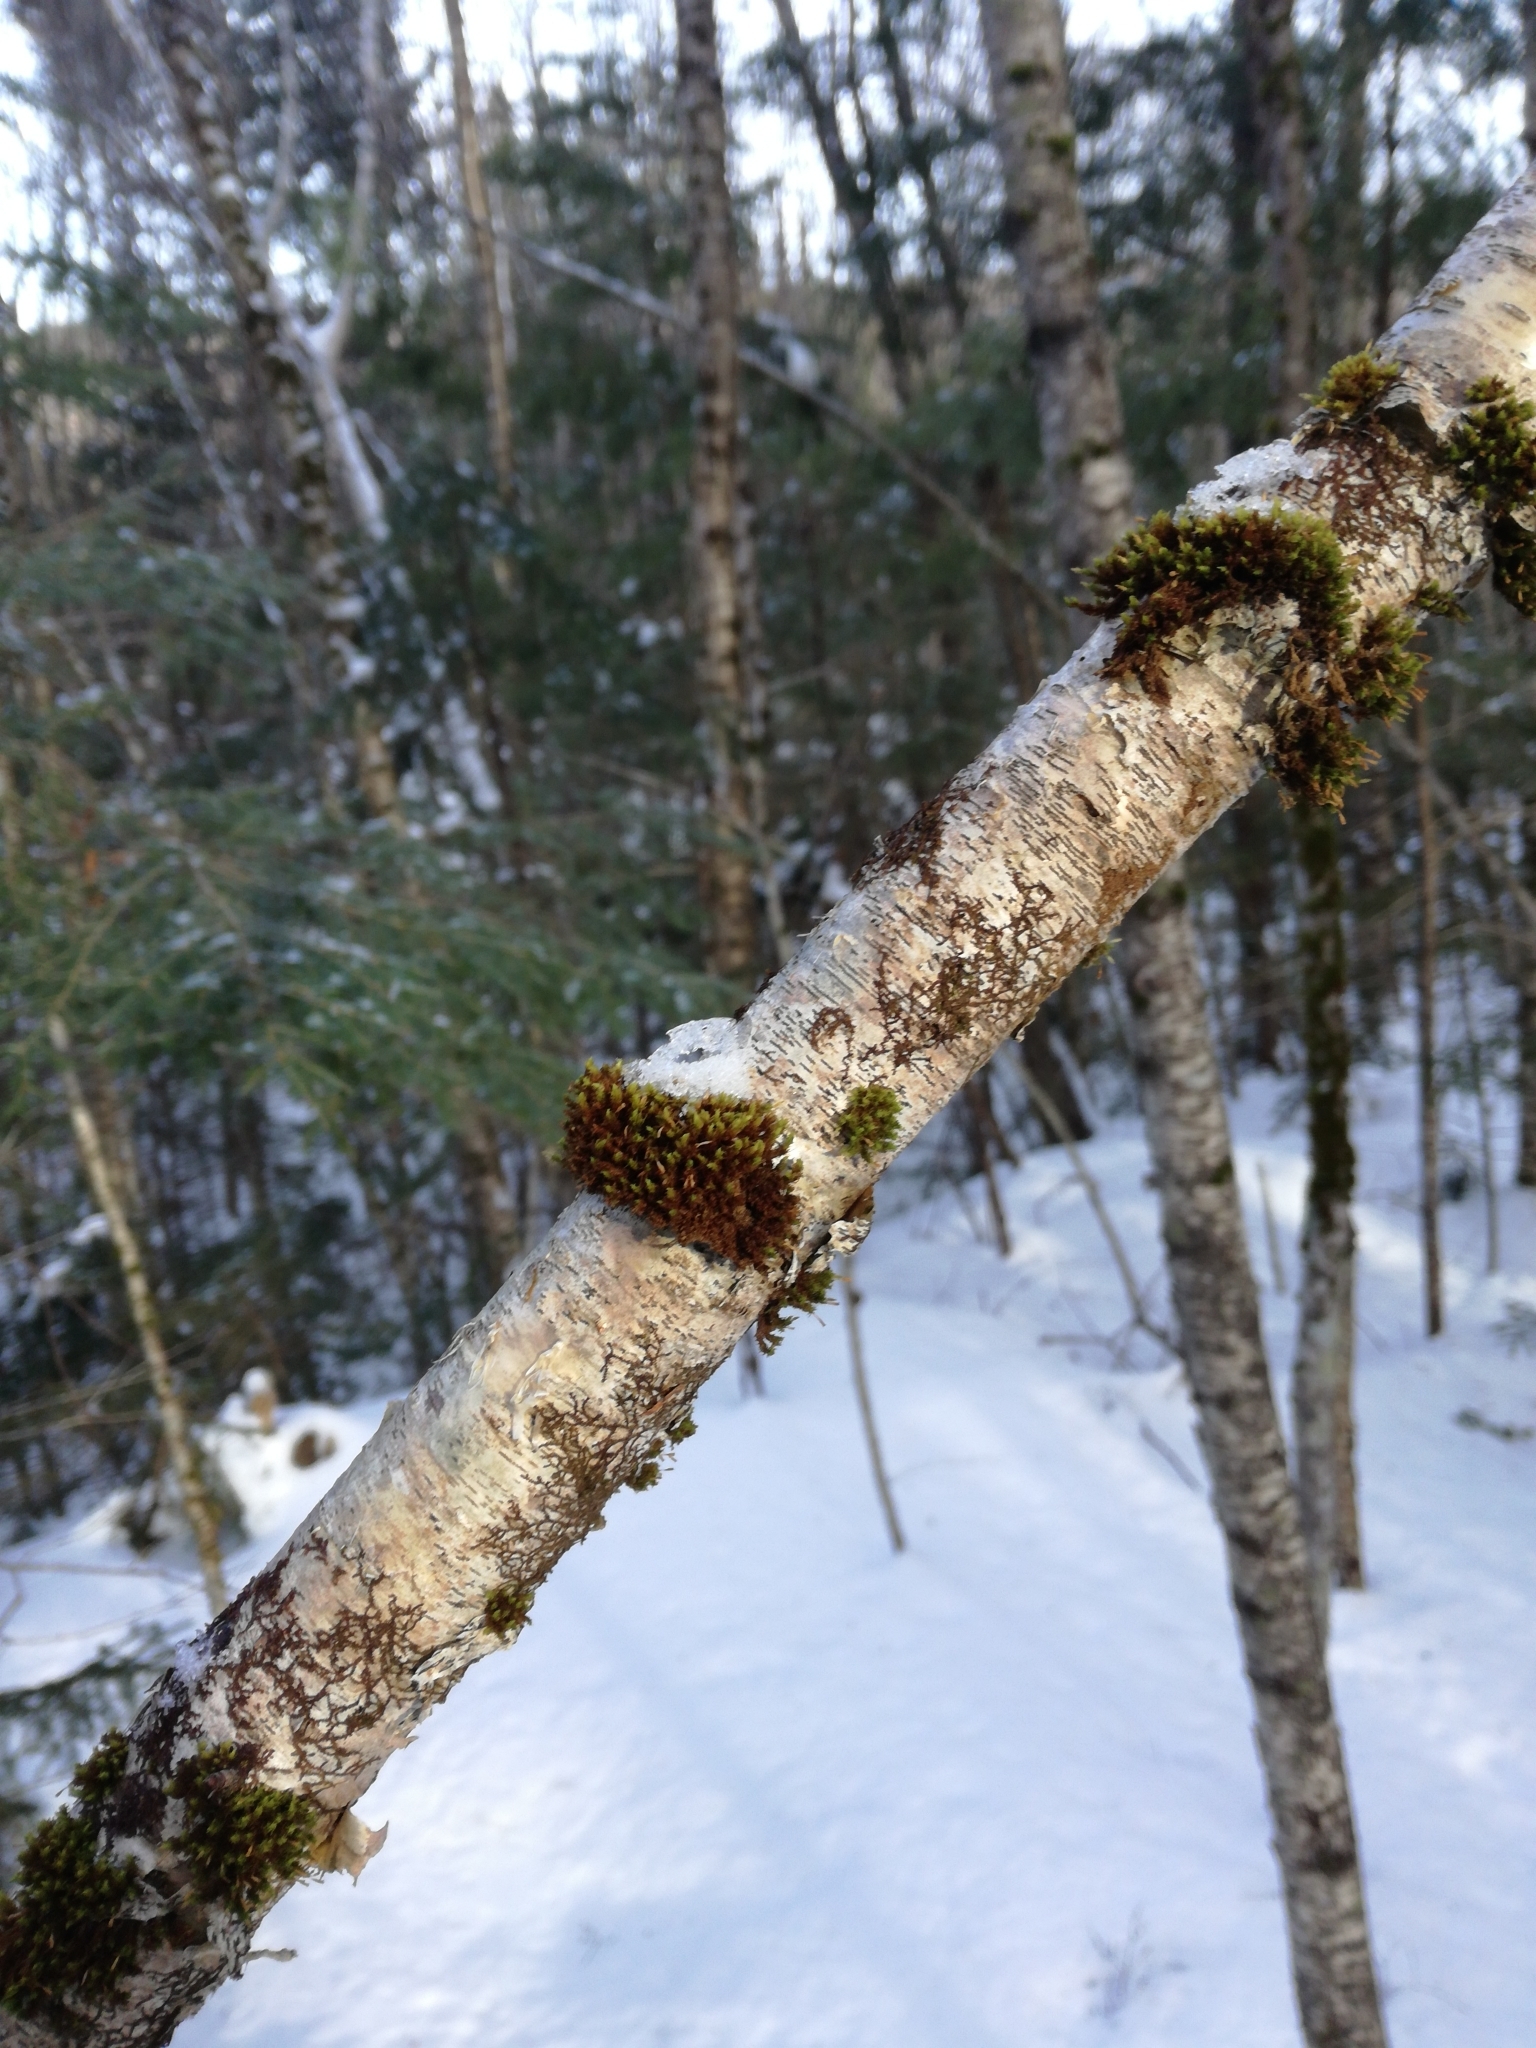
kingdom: Plantae
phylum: Bryophyta
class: Bryopsida
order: Orthotrichales
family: Orthotrichaceae
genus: Ulota
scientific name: Ulota crispa
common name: Crisped pincushion moss
